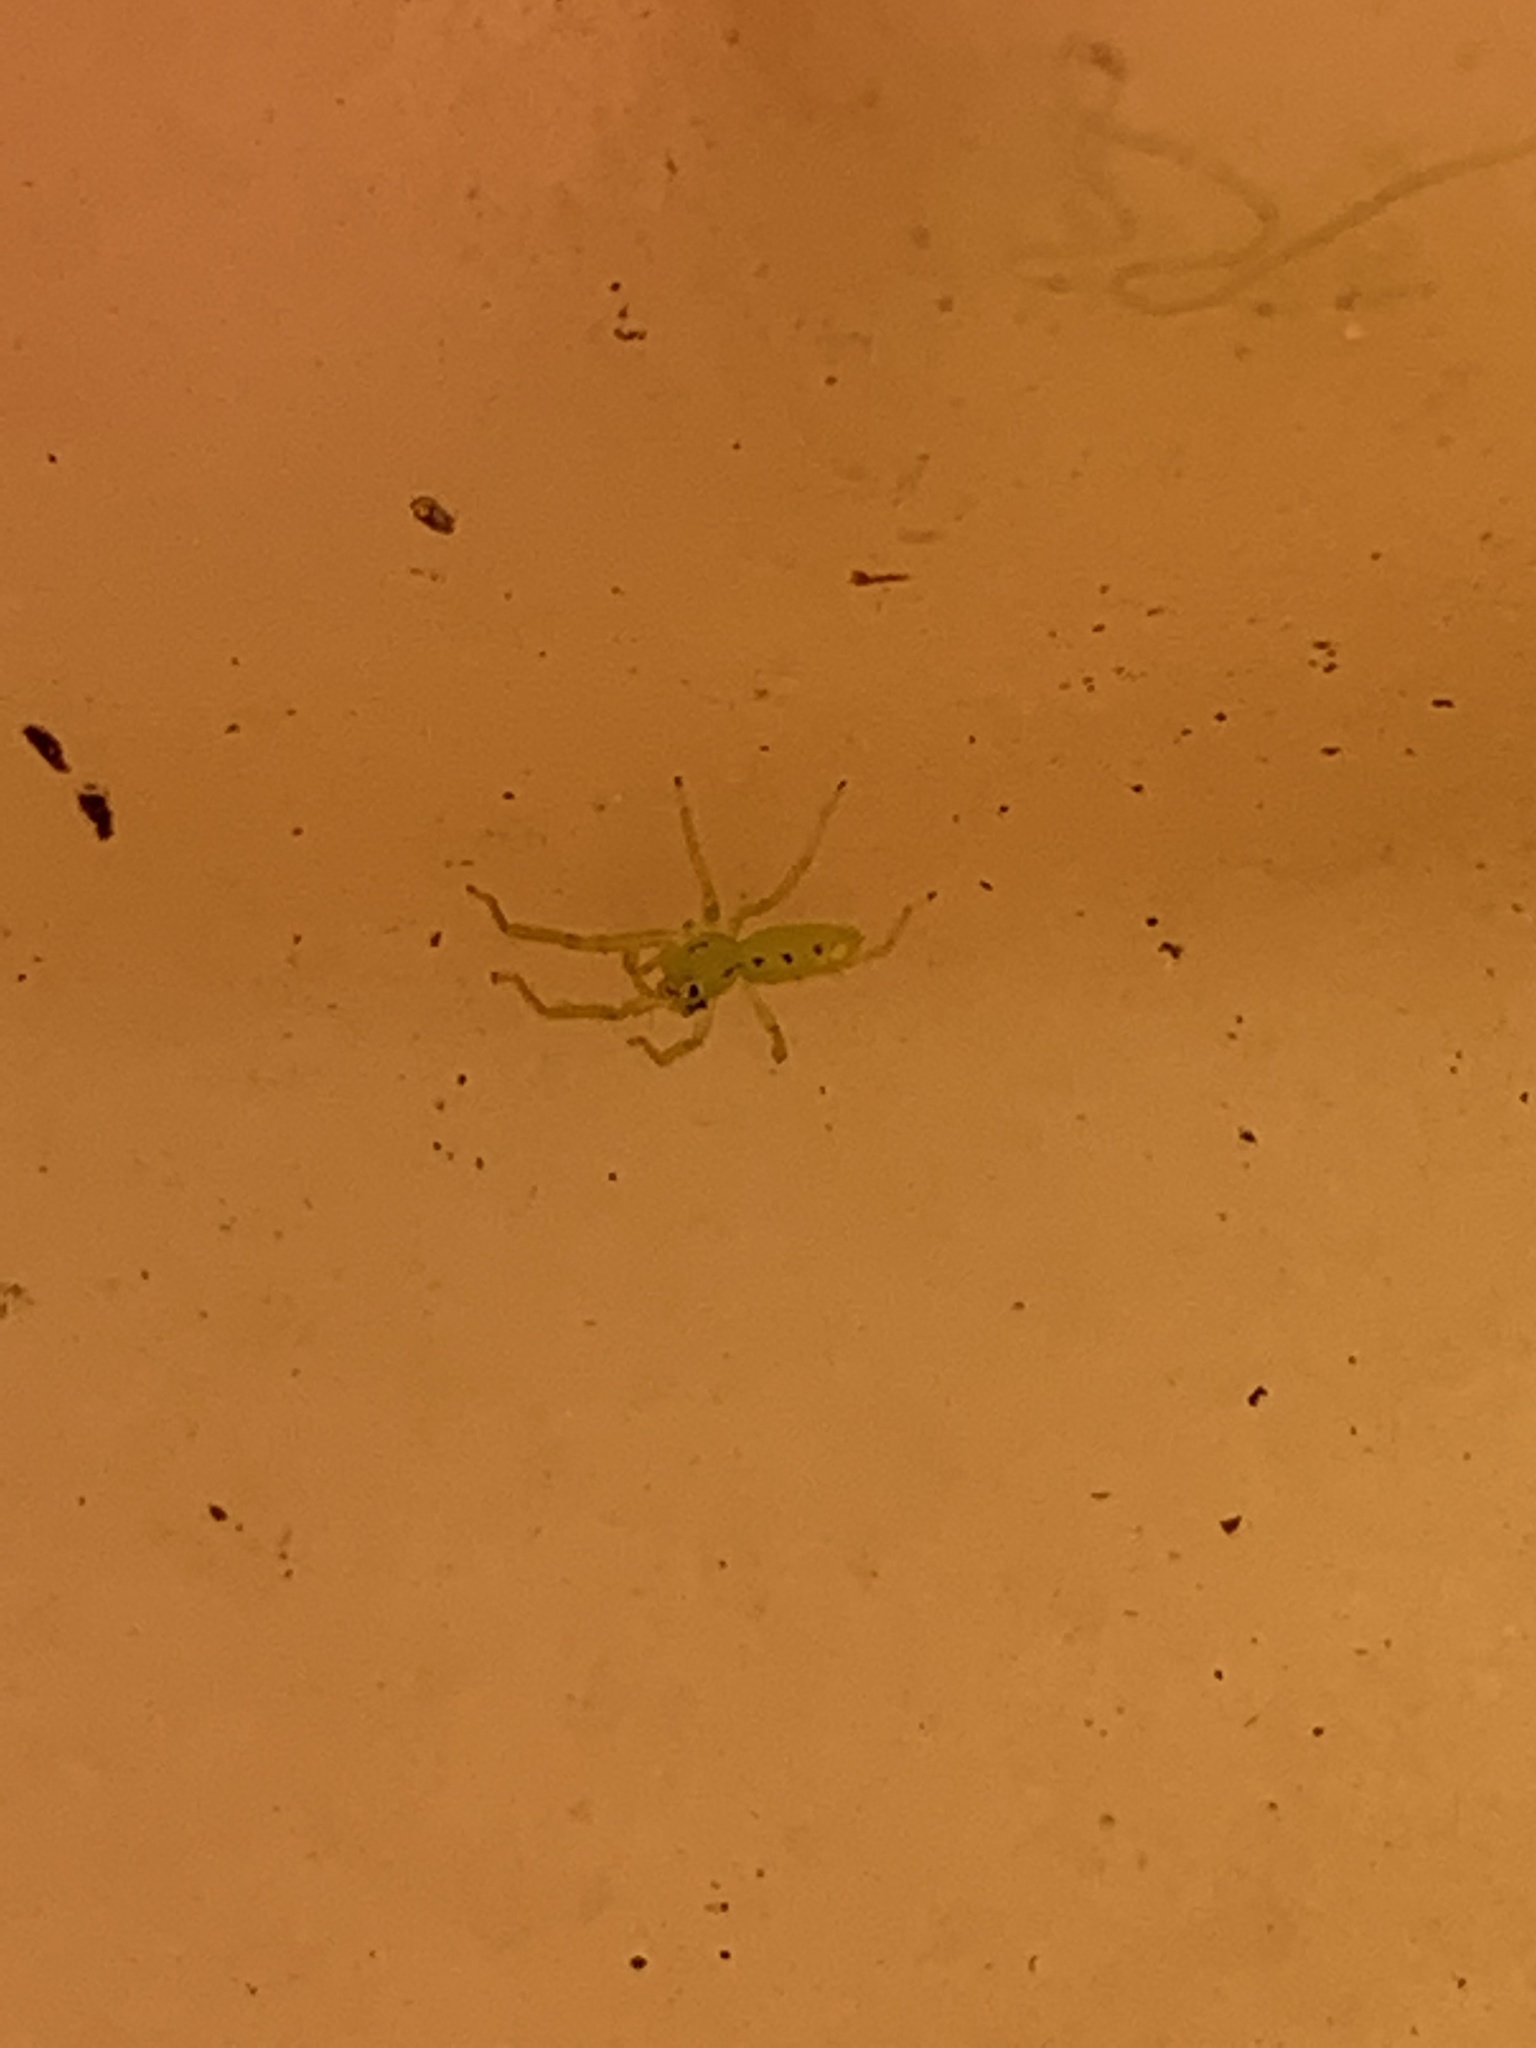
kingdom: Animalia
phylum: Arthropoda
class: Arachnida
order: Araneae
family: Salticidae
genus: Lyssomanes
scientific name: Lyssomanes viridis
